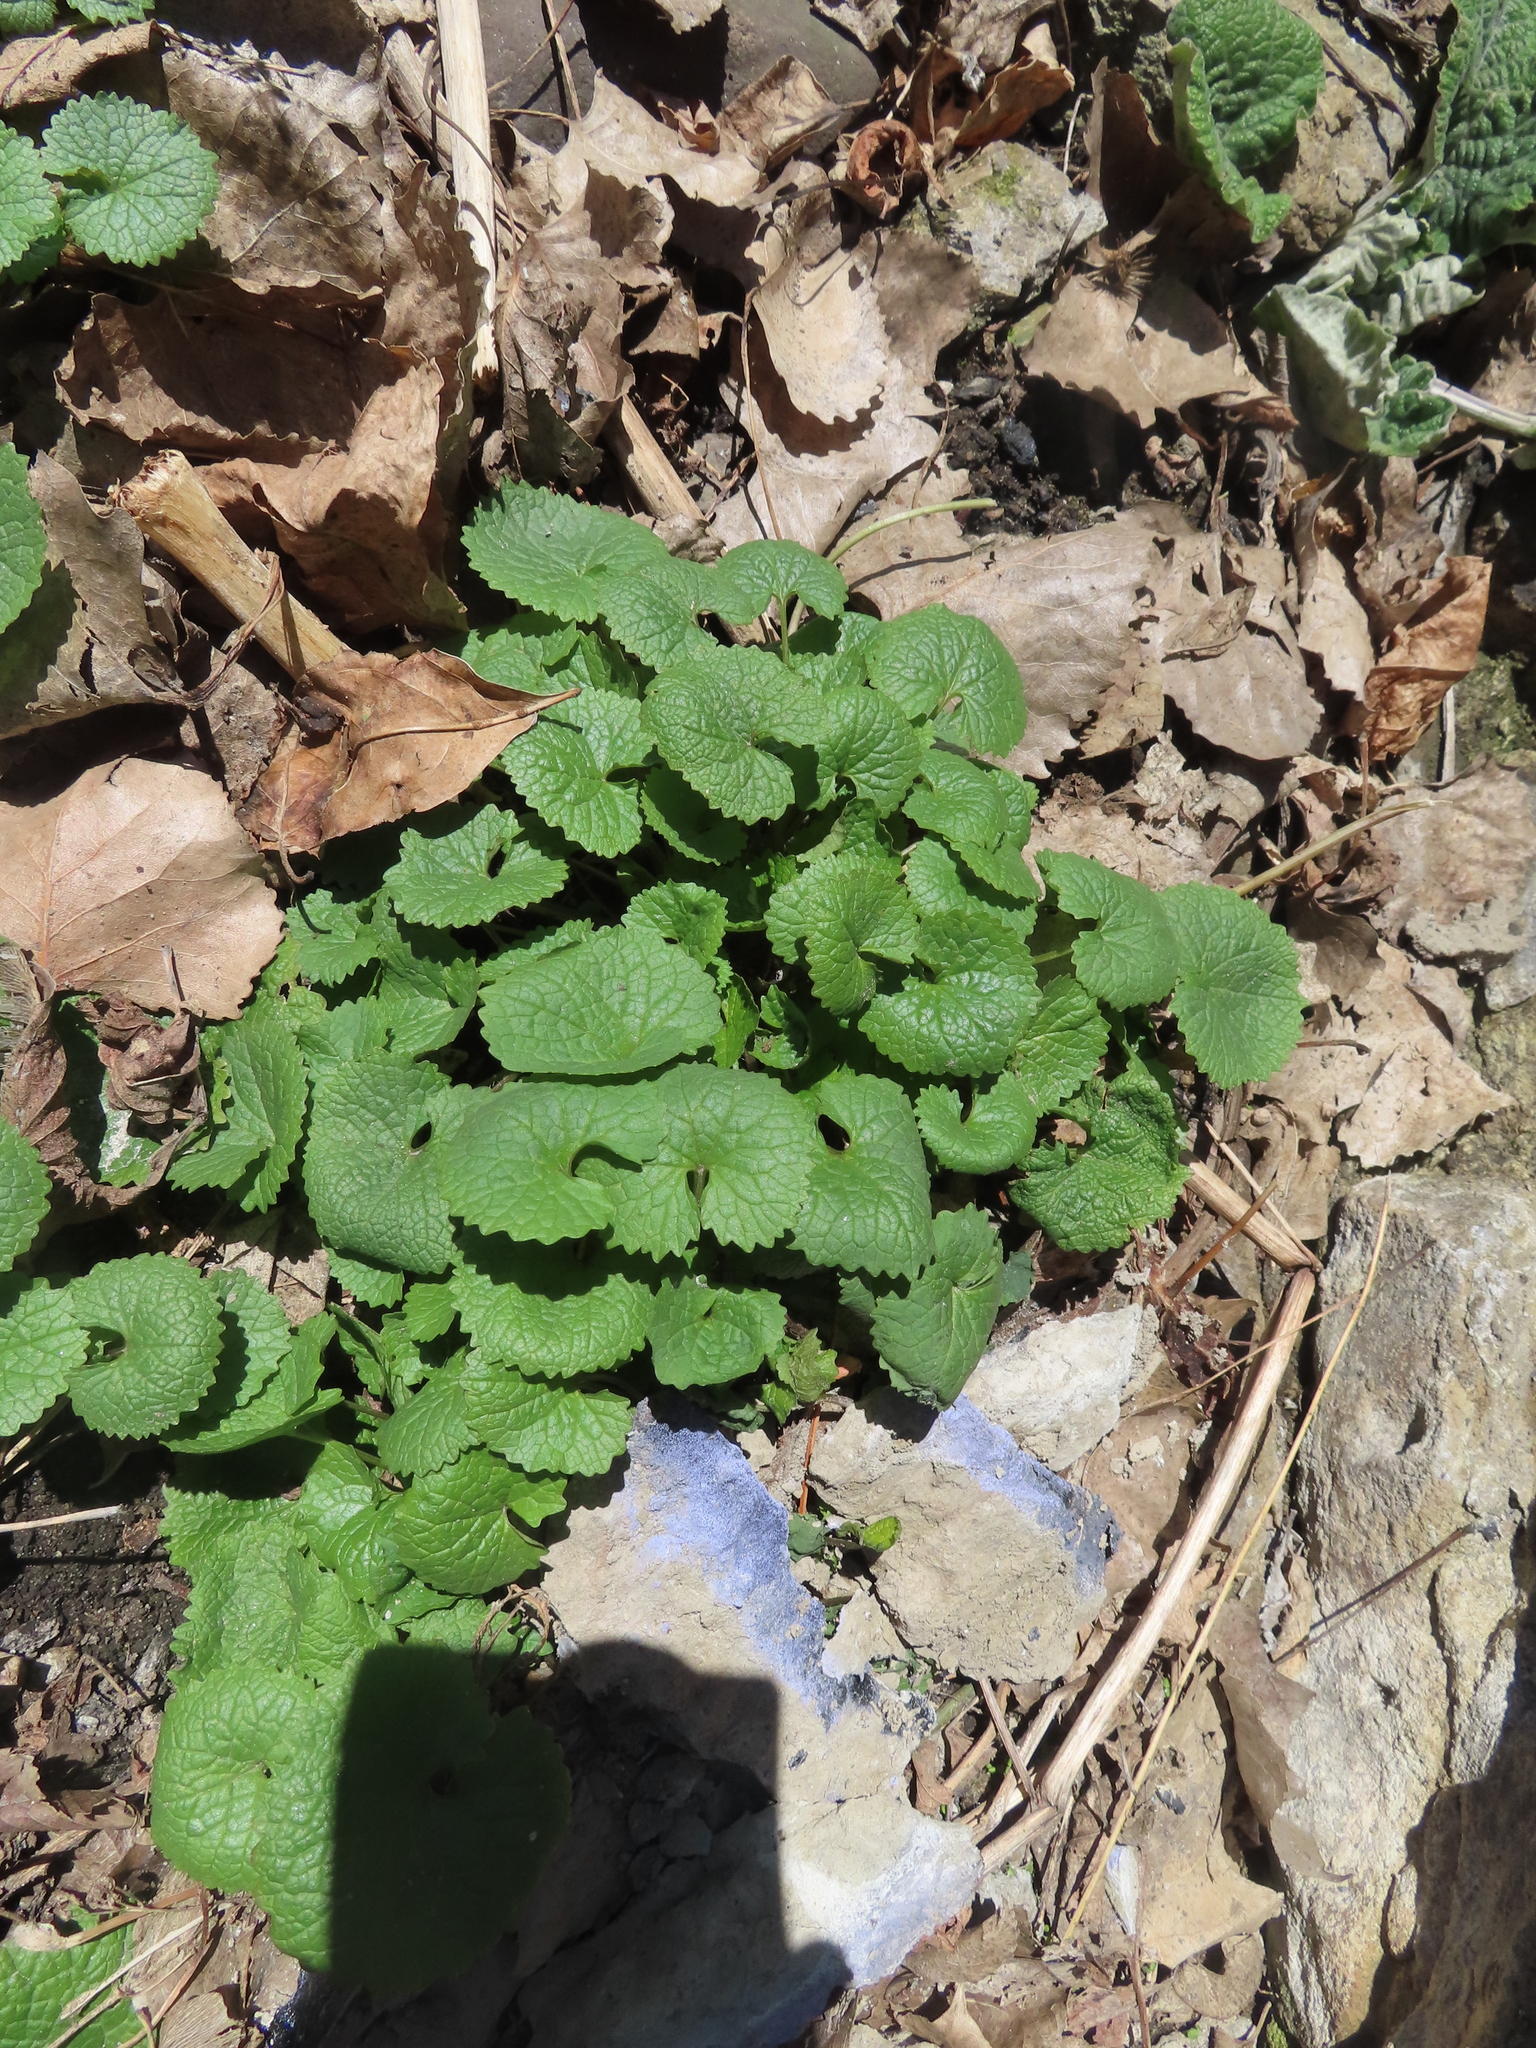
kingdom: Plantae
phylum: Tracheophyta
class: Magnoliopsida
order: Brassicales
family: Brassicaceae
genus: Alliaria
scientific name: Alliaria petiolata
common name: Garlic mustard
